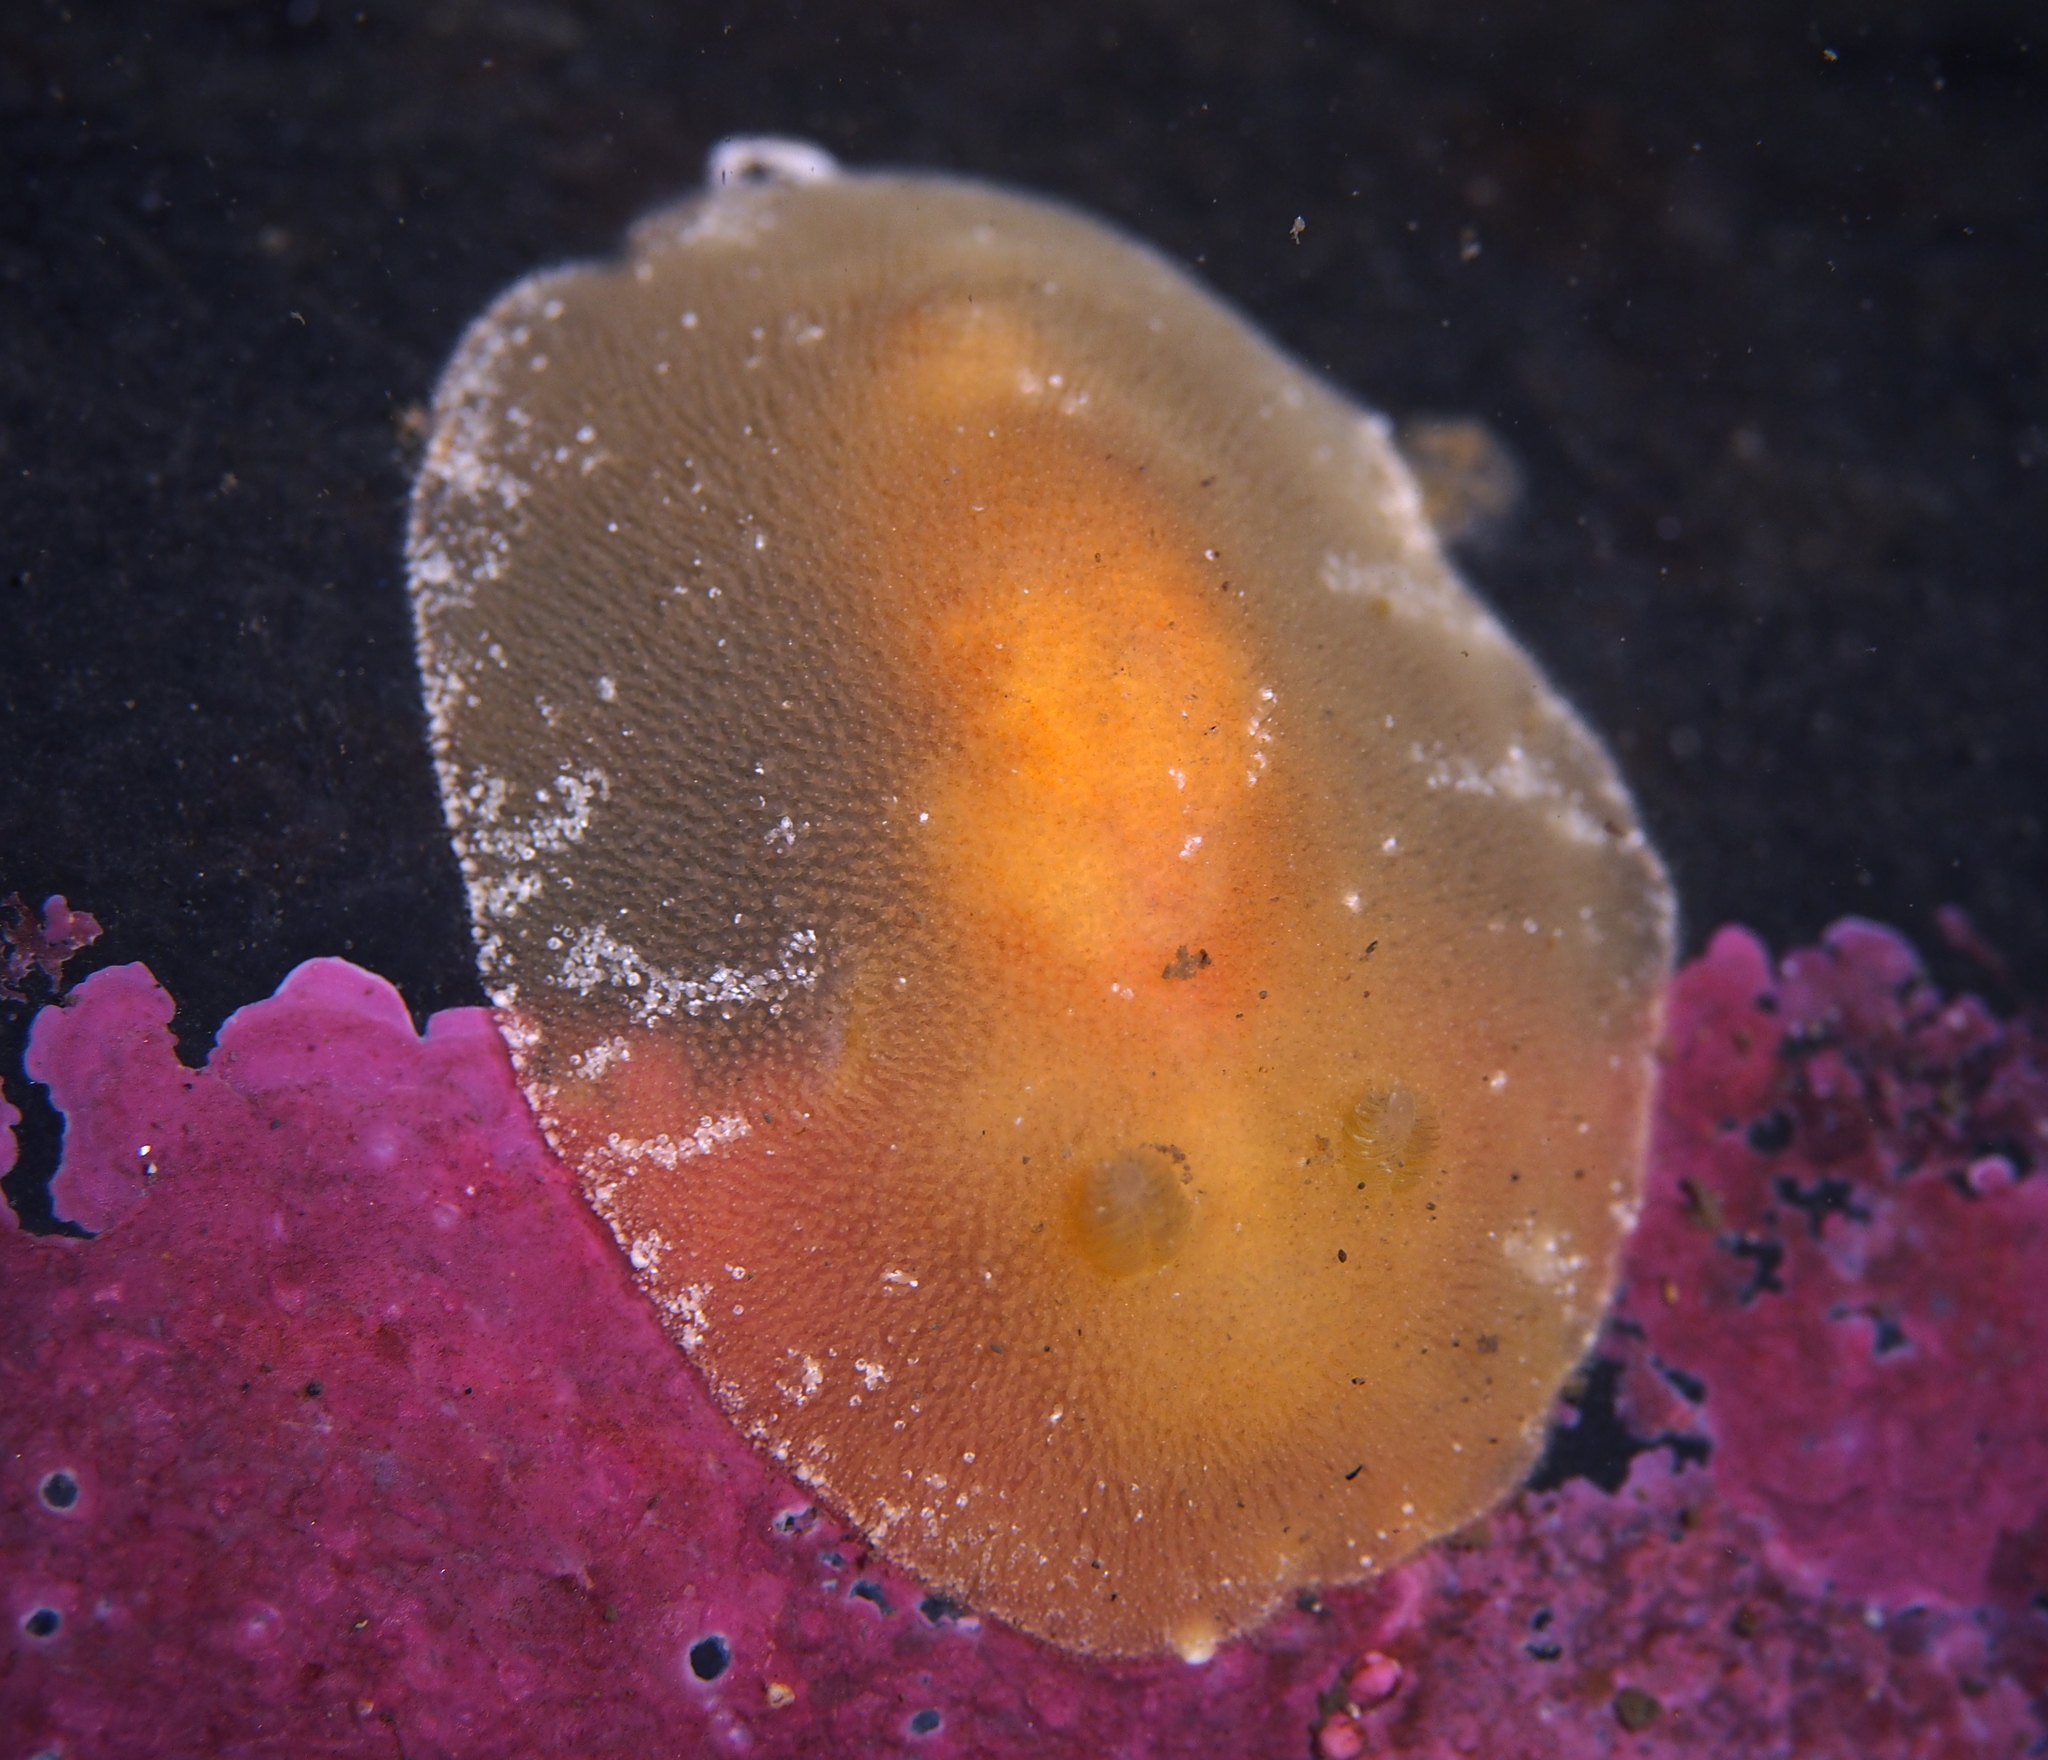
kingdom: Animalia
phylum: Mollusca
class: Gastropoda
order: Nudibranchia
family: Discodorididae
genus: Rostanga
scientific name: Rostanga rubra
